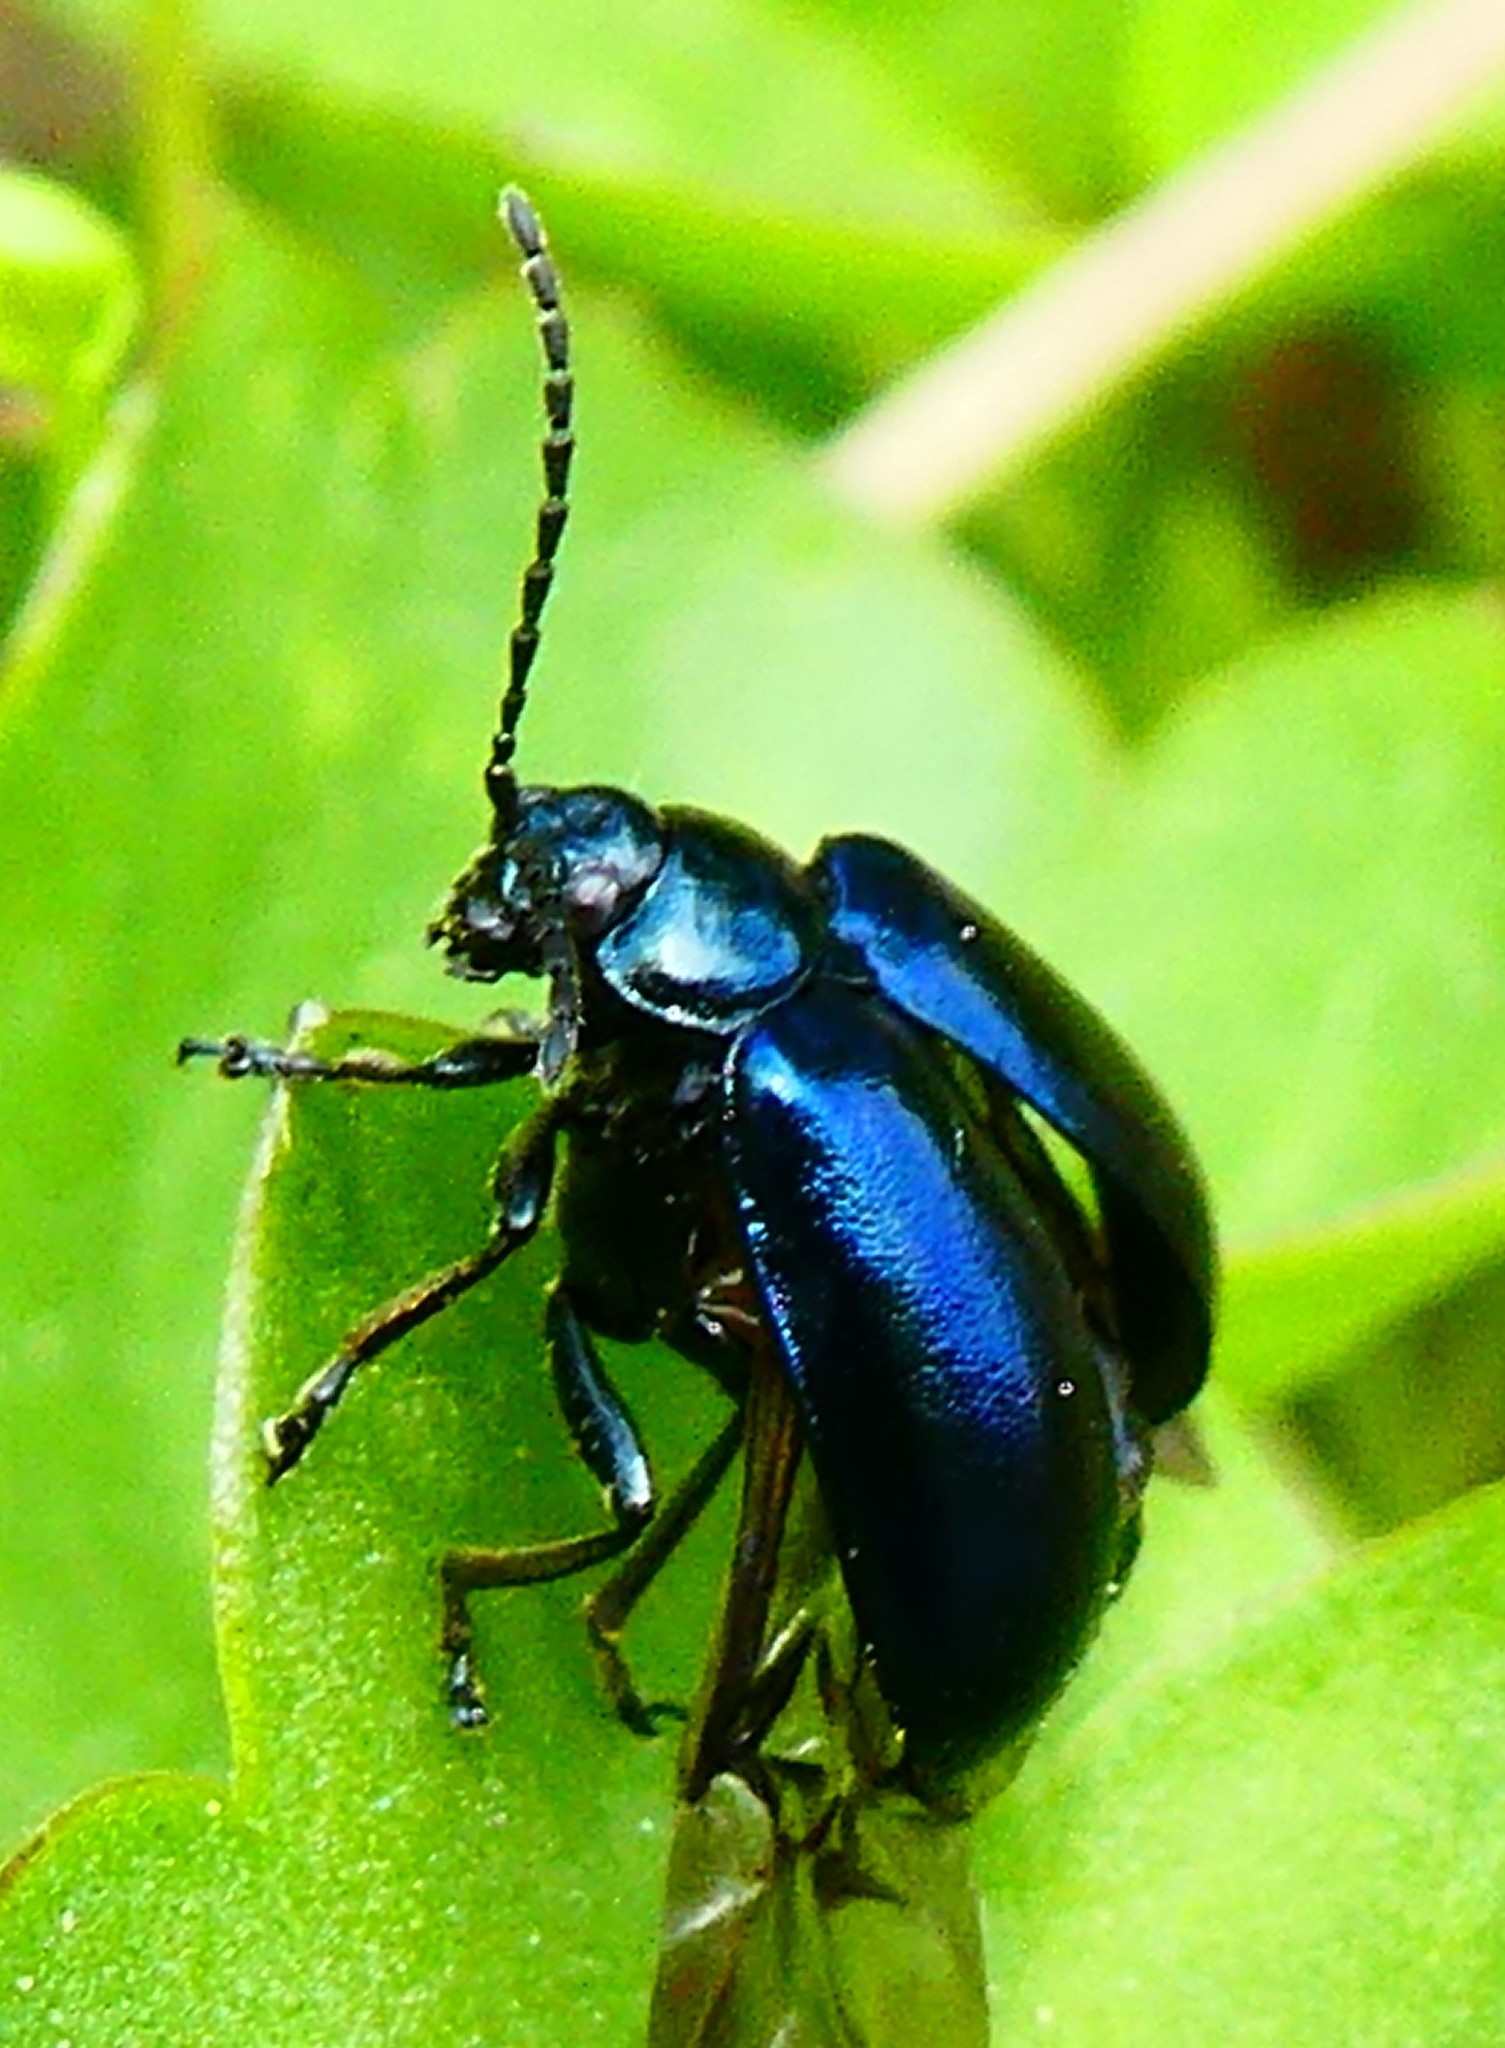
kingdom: Animalia
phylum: Arthropoda
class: Insecta
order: Coleoptera
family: Chrysomelidae
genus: Agelastica
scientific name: Agelastica alni
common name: Alder leaf beetle
